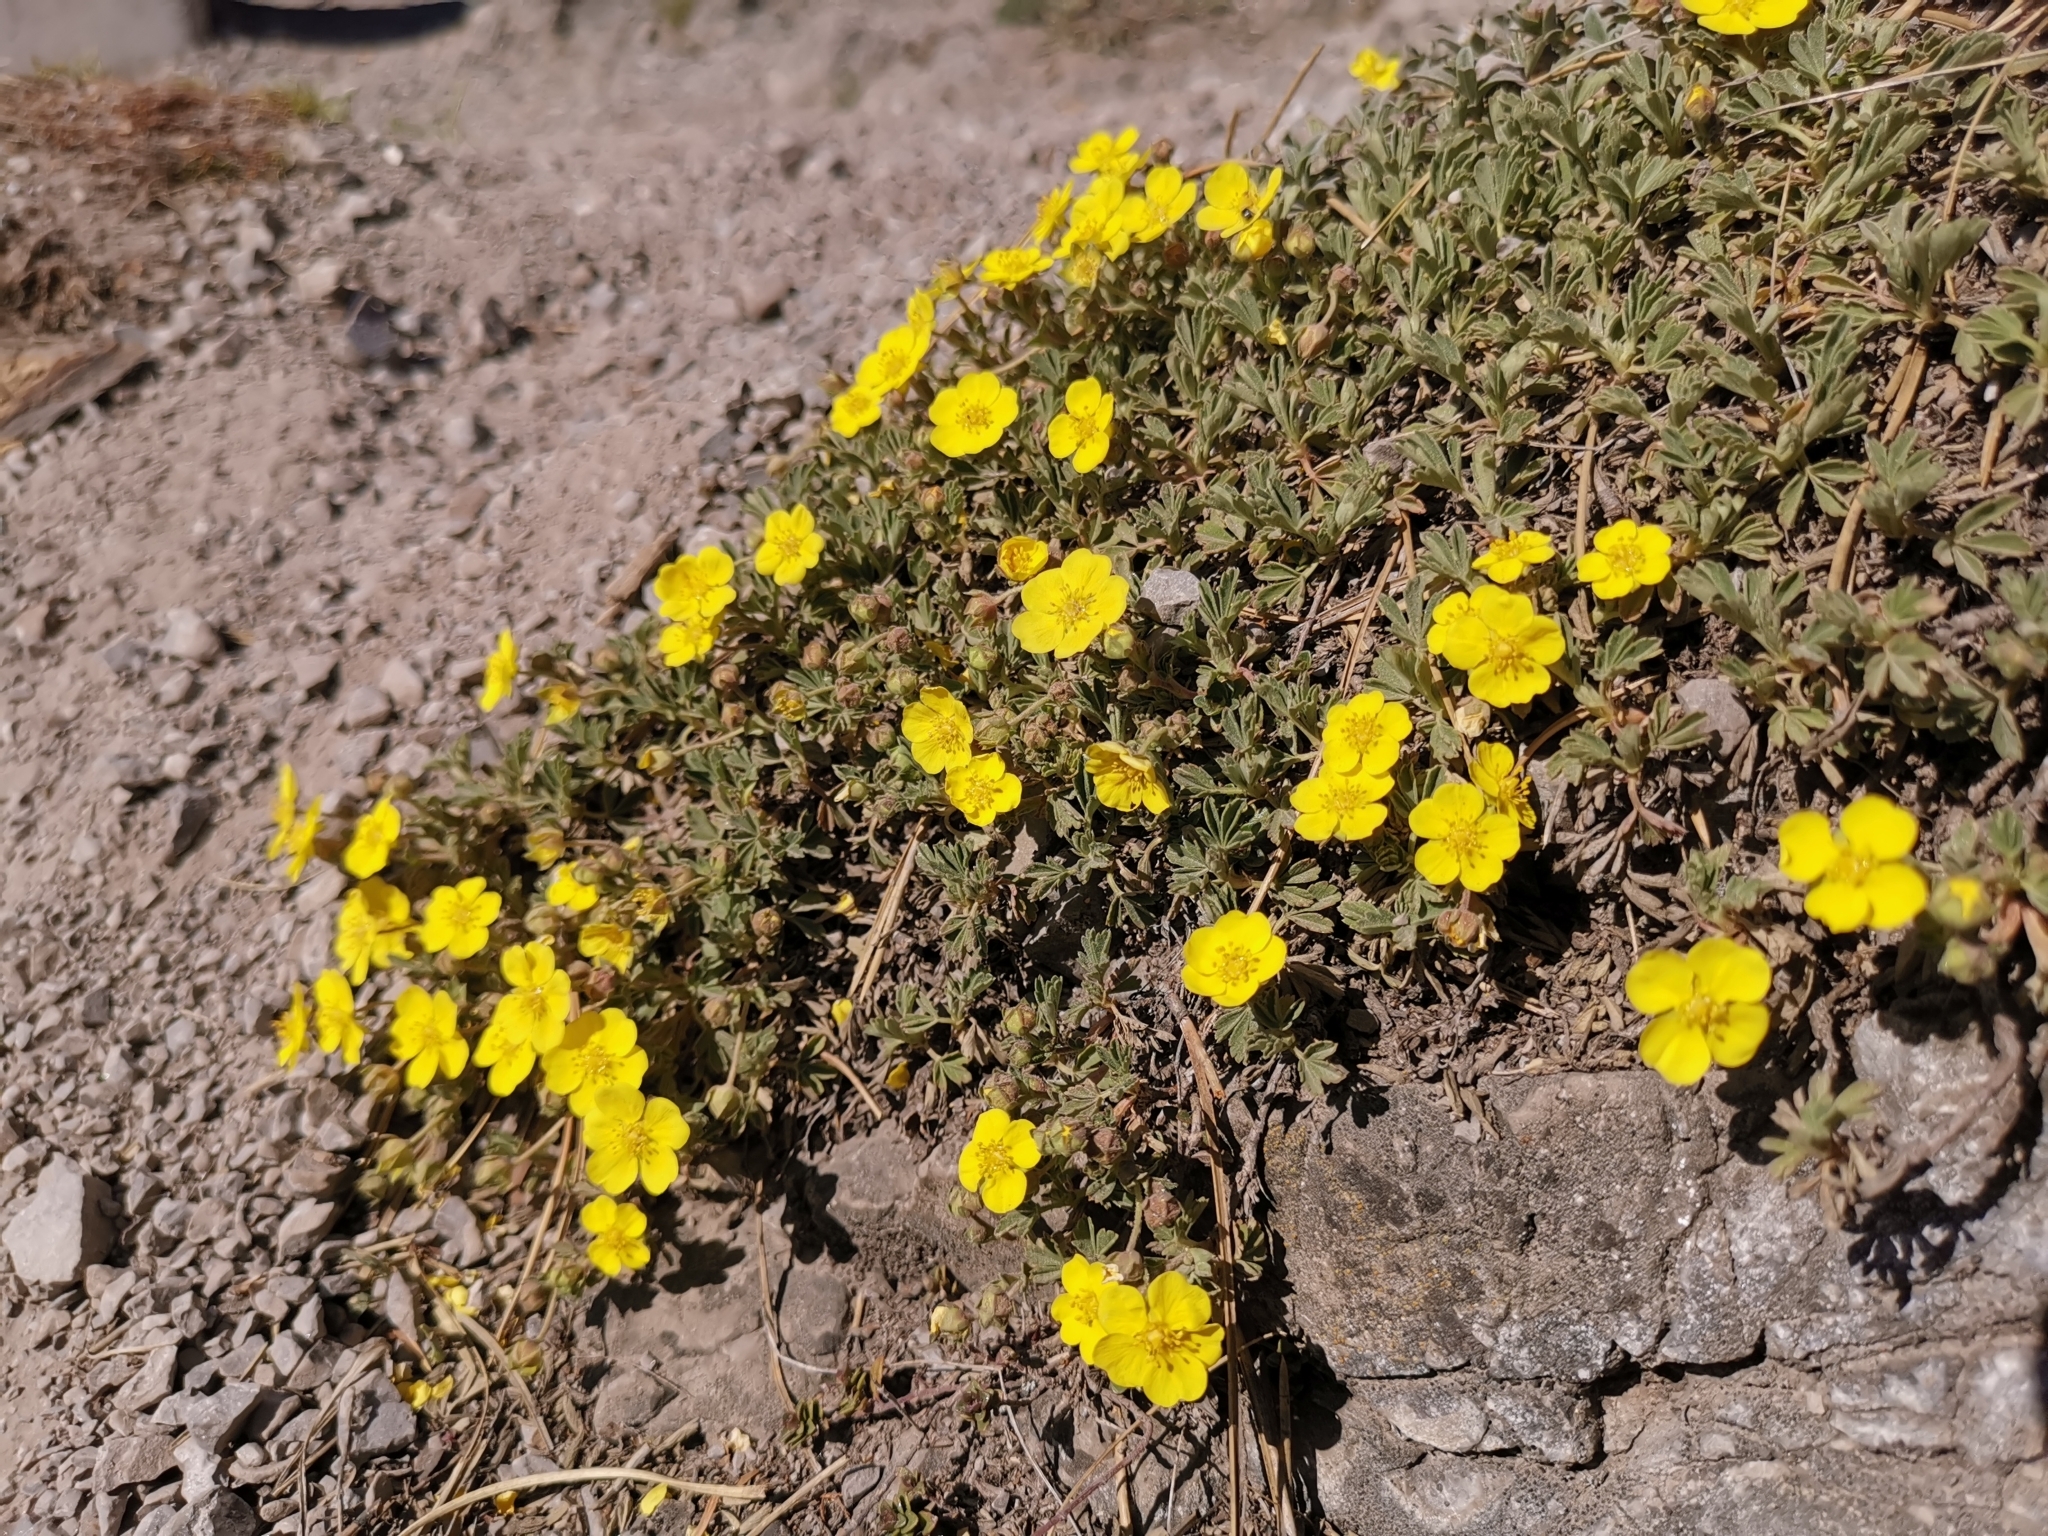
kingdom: Plantae
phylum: Tracheophyta
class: Magnoliopsida
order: Rosales
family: Rosaceae
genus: Potentilla
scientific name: Potentilla incana
